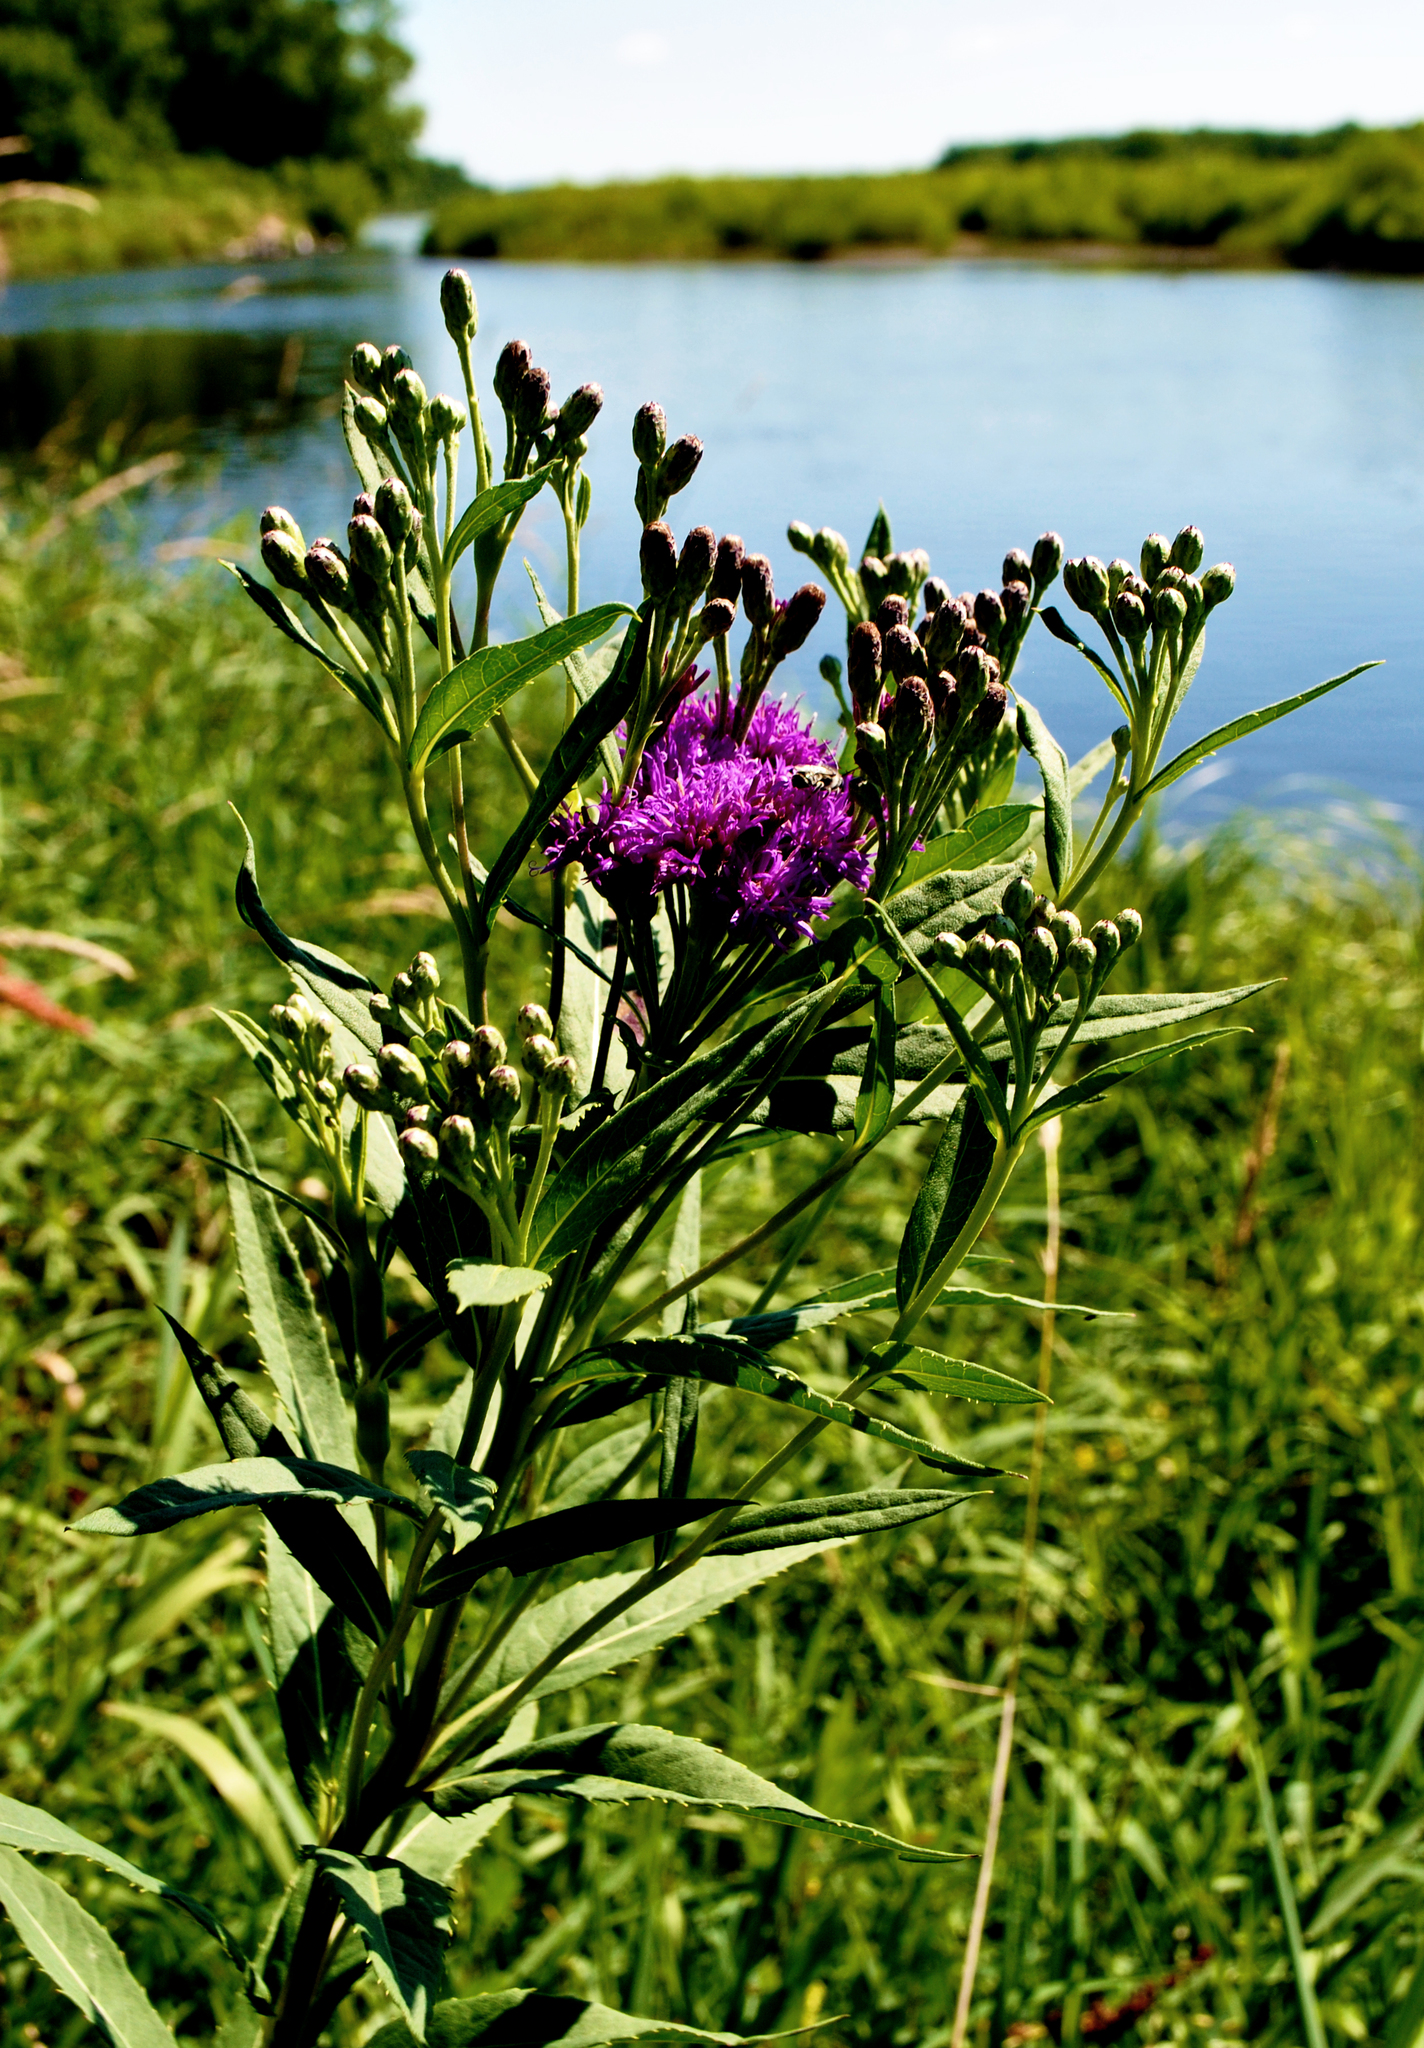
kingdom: Plantae
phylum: Tracheophyta
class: Magnoliopsida
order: Asterales
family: Asteraceae
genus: Vernonia
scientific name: Vernonia fasciculata
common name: Fascicled ironweed
